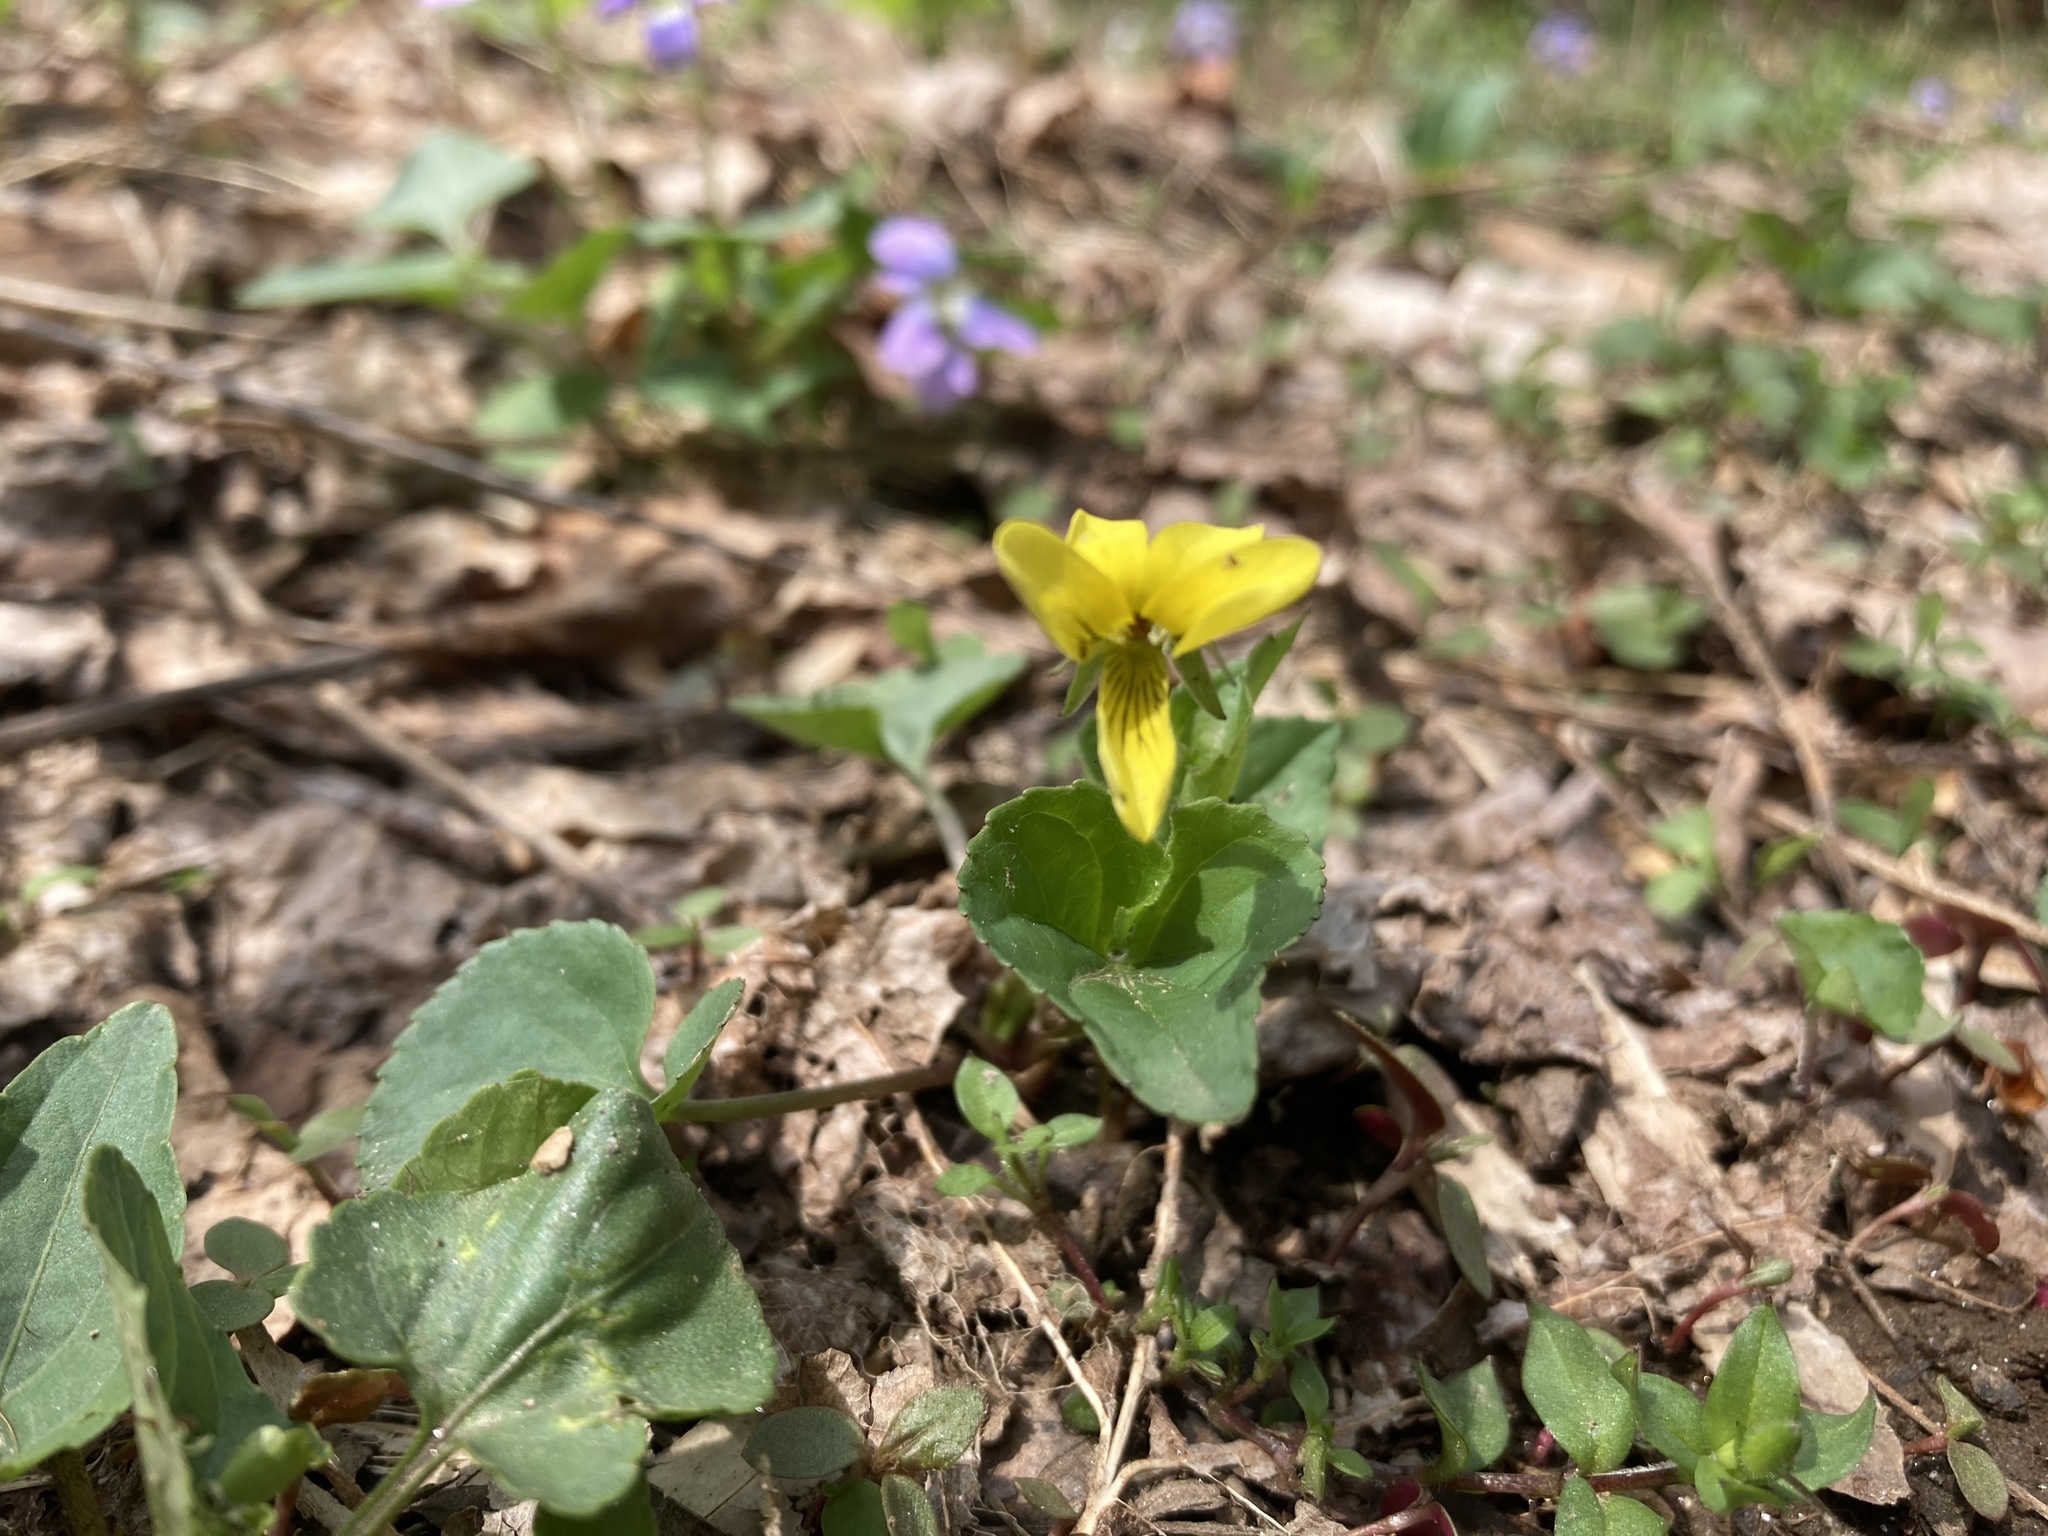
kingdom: Plantae
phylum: Tracheophyta
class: Magnoliopsida
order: Malpighiales
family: Violaceae
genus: Viola
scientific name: Viola rotundifolia
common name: Early yellow violet
